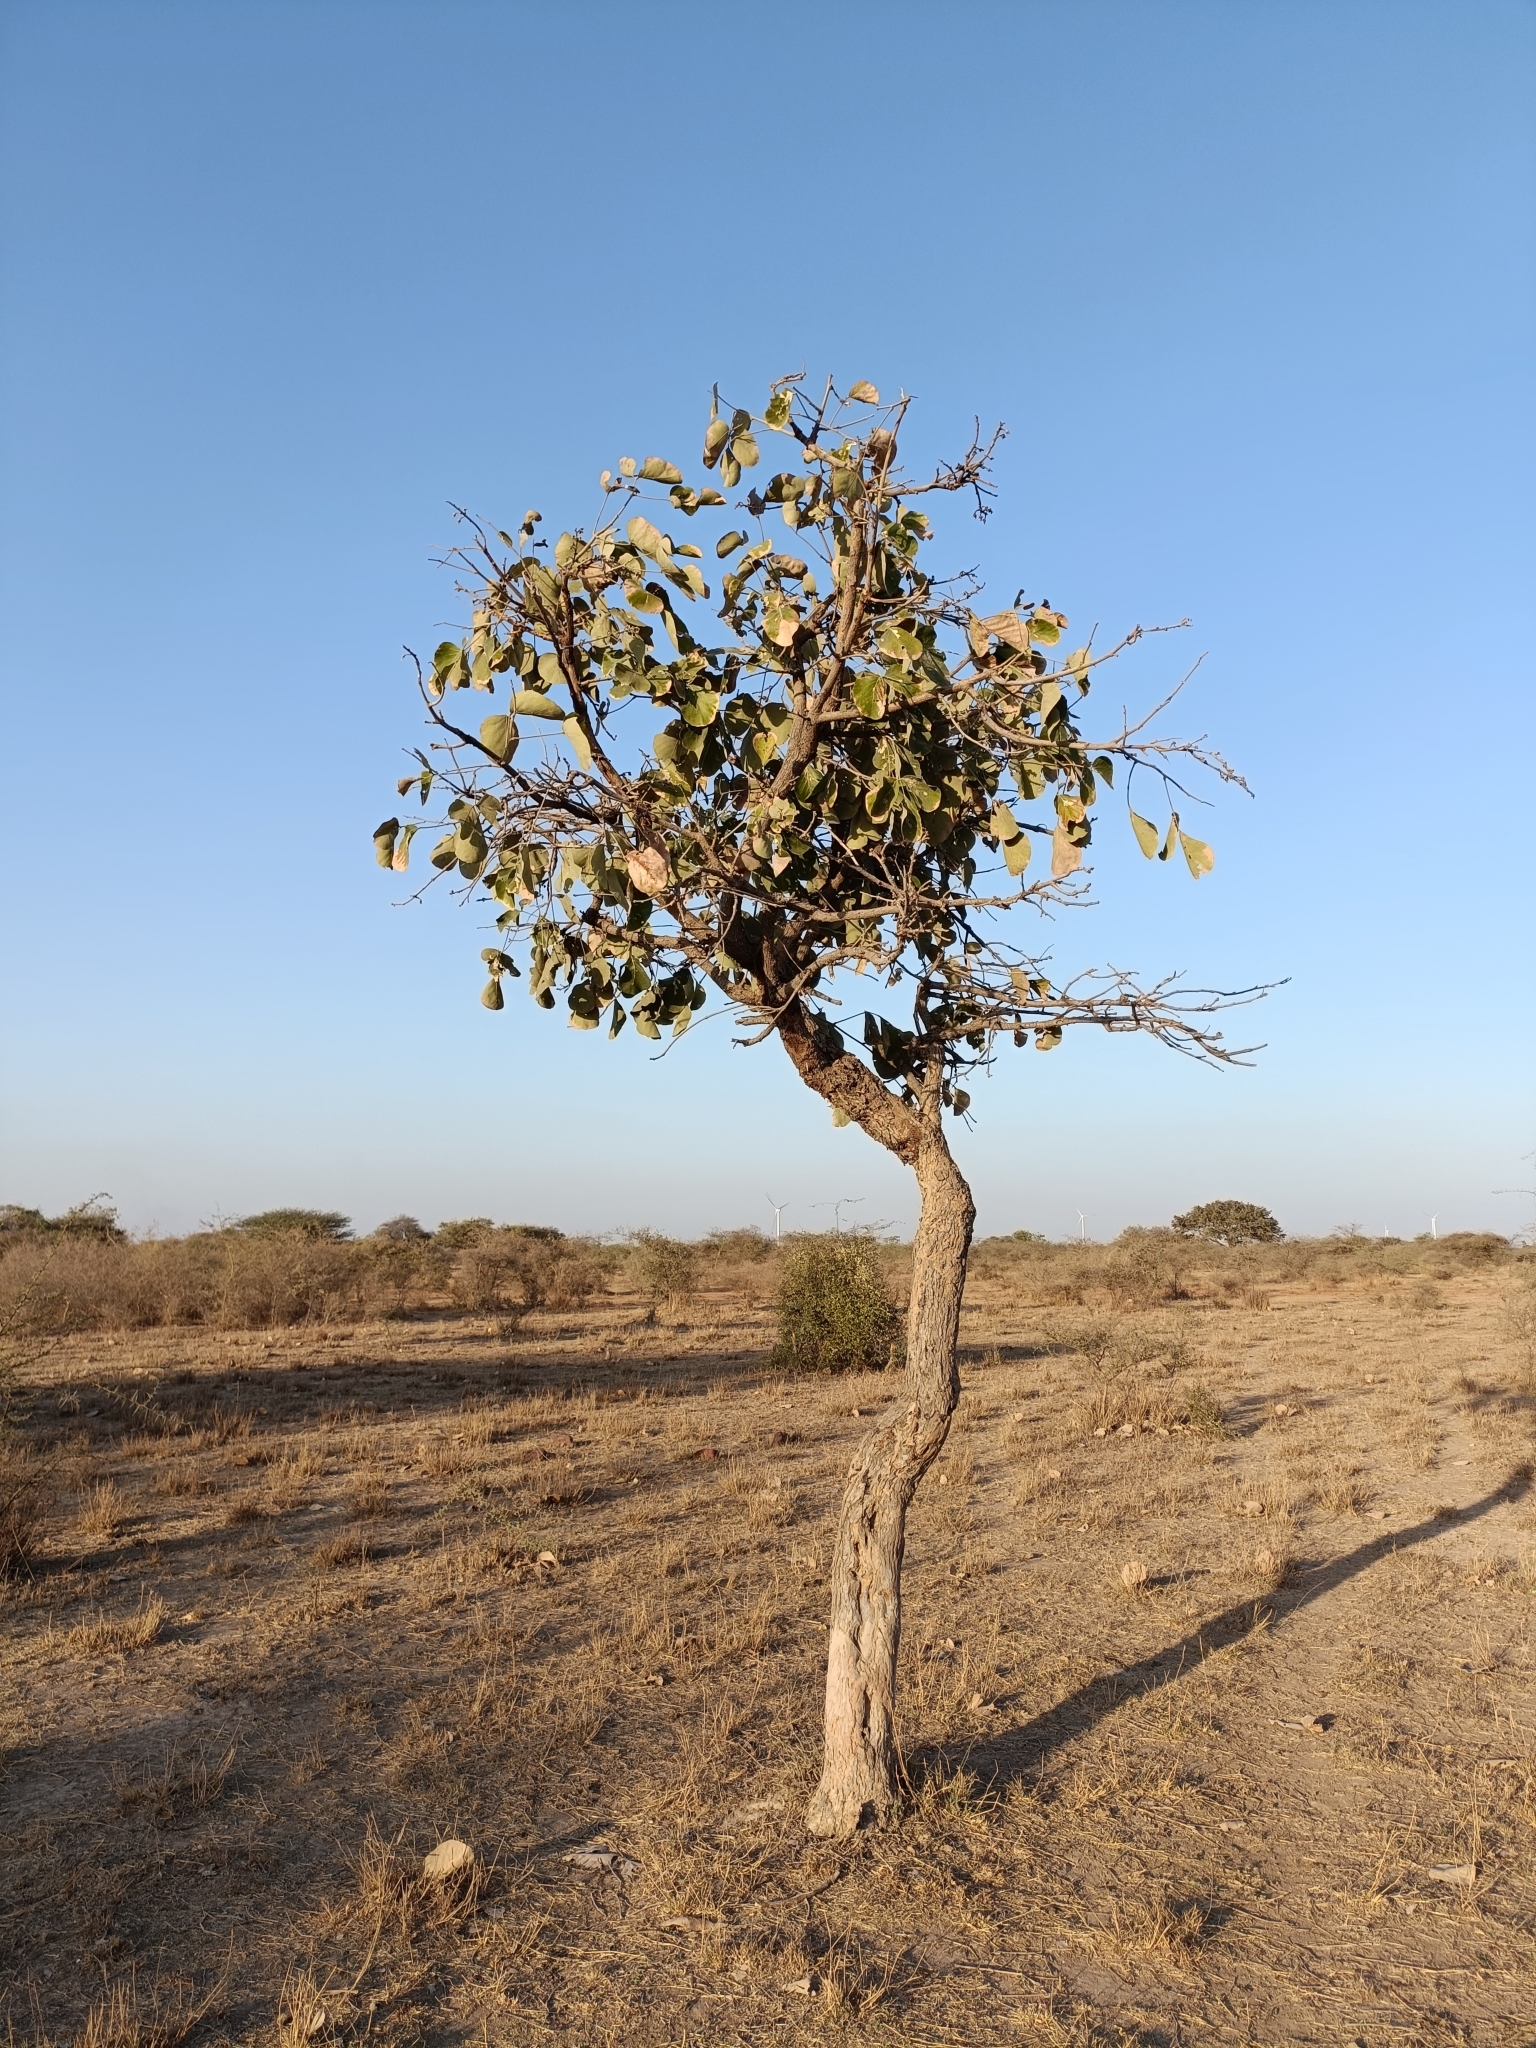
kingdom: Plantae
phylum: Tracheophyta
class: Magnoliopsida
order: Fabales
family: Fabaceae
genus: Butea
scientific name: Butea monosperma
